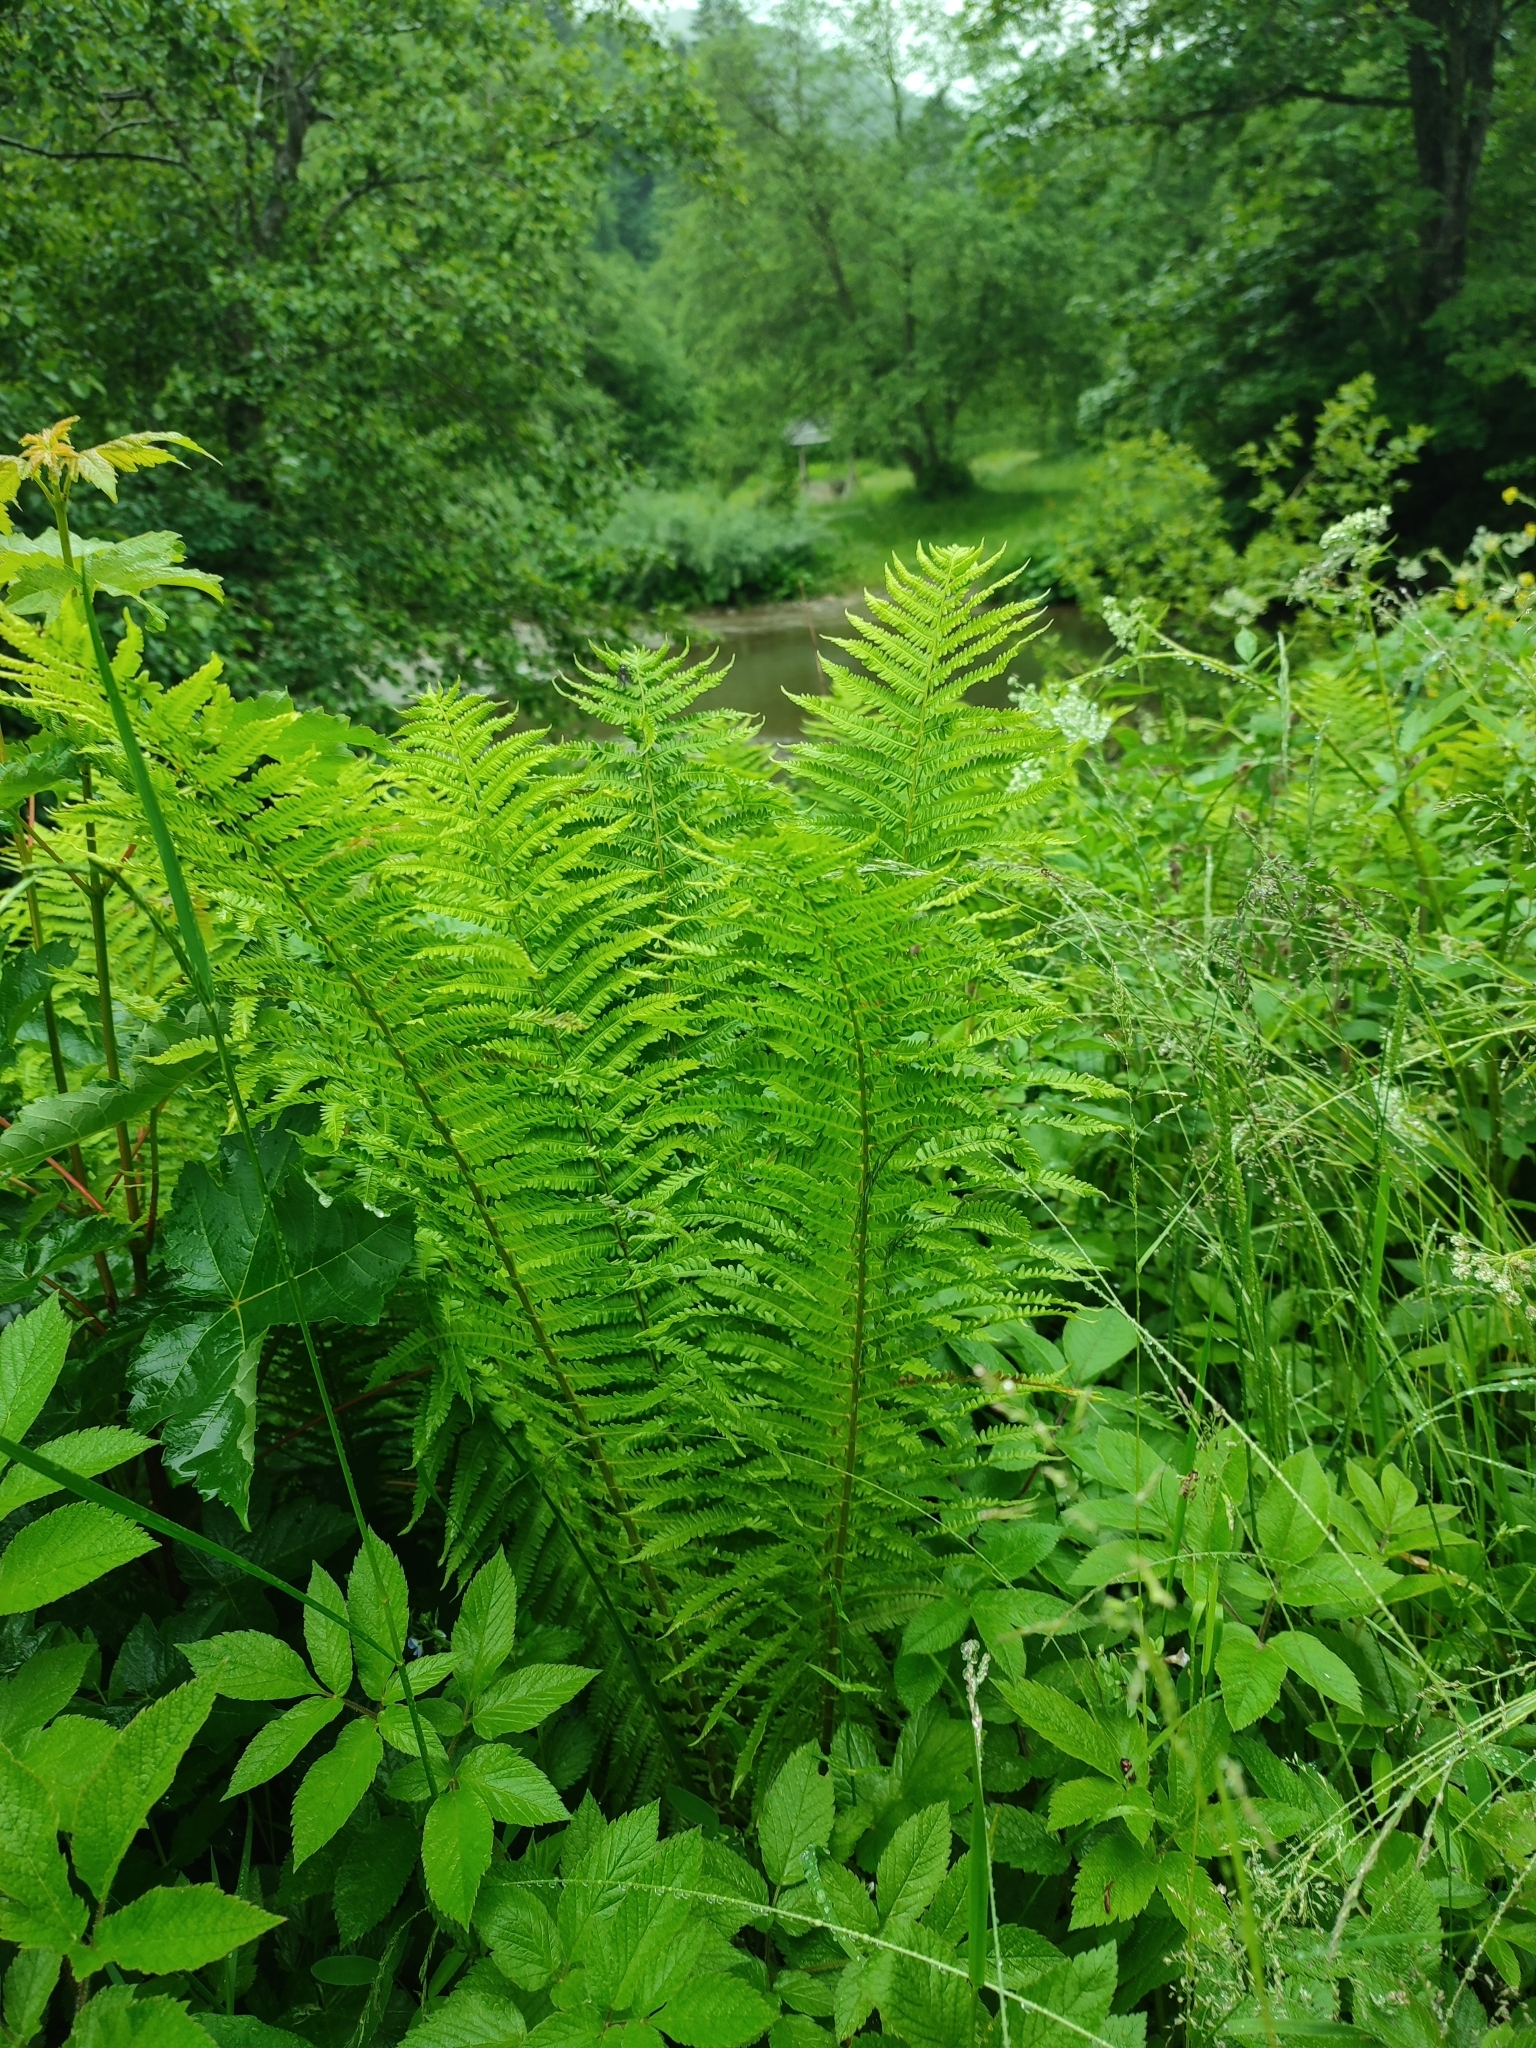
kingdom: Plantae
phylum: Tracheophyta
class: Polypodiopsida
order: Polypodiales
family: Onocleaceae
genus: Matteuccia
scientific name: Matteuccia struthiopteris
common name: Ostrich fern
